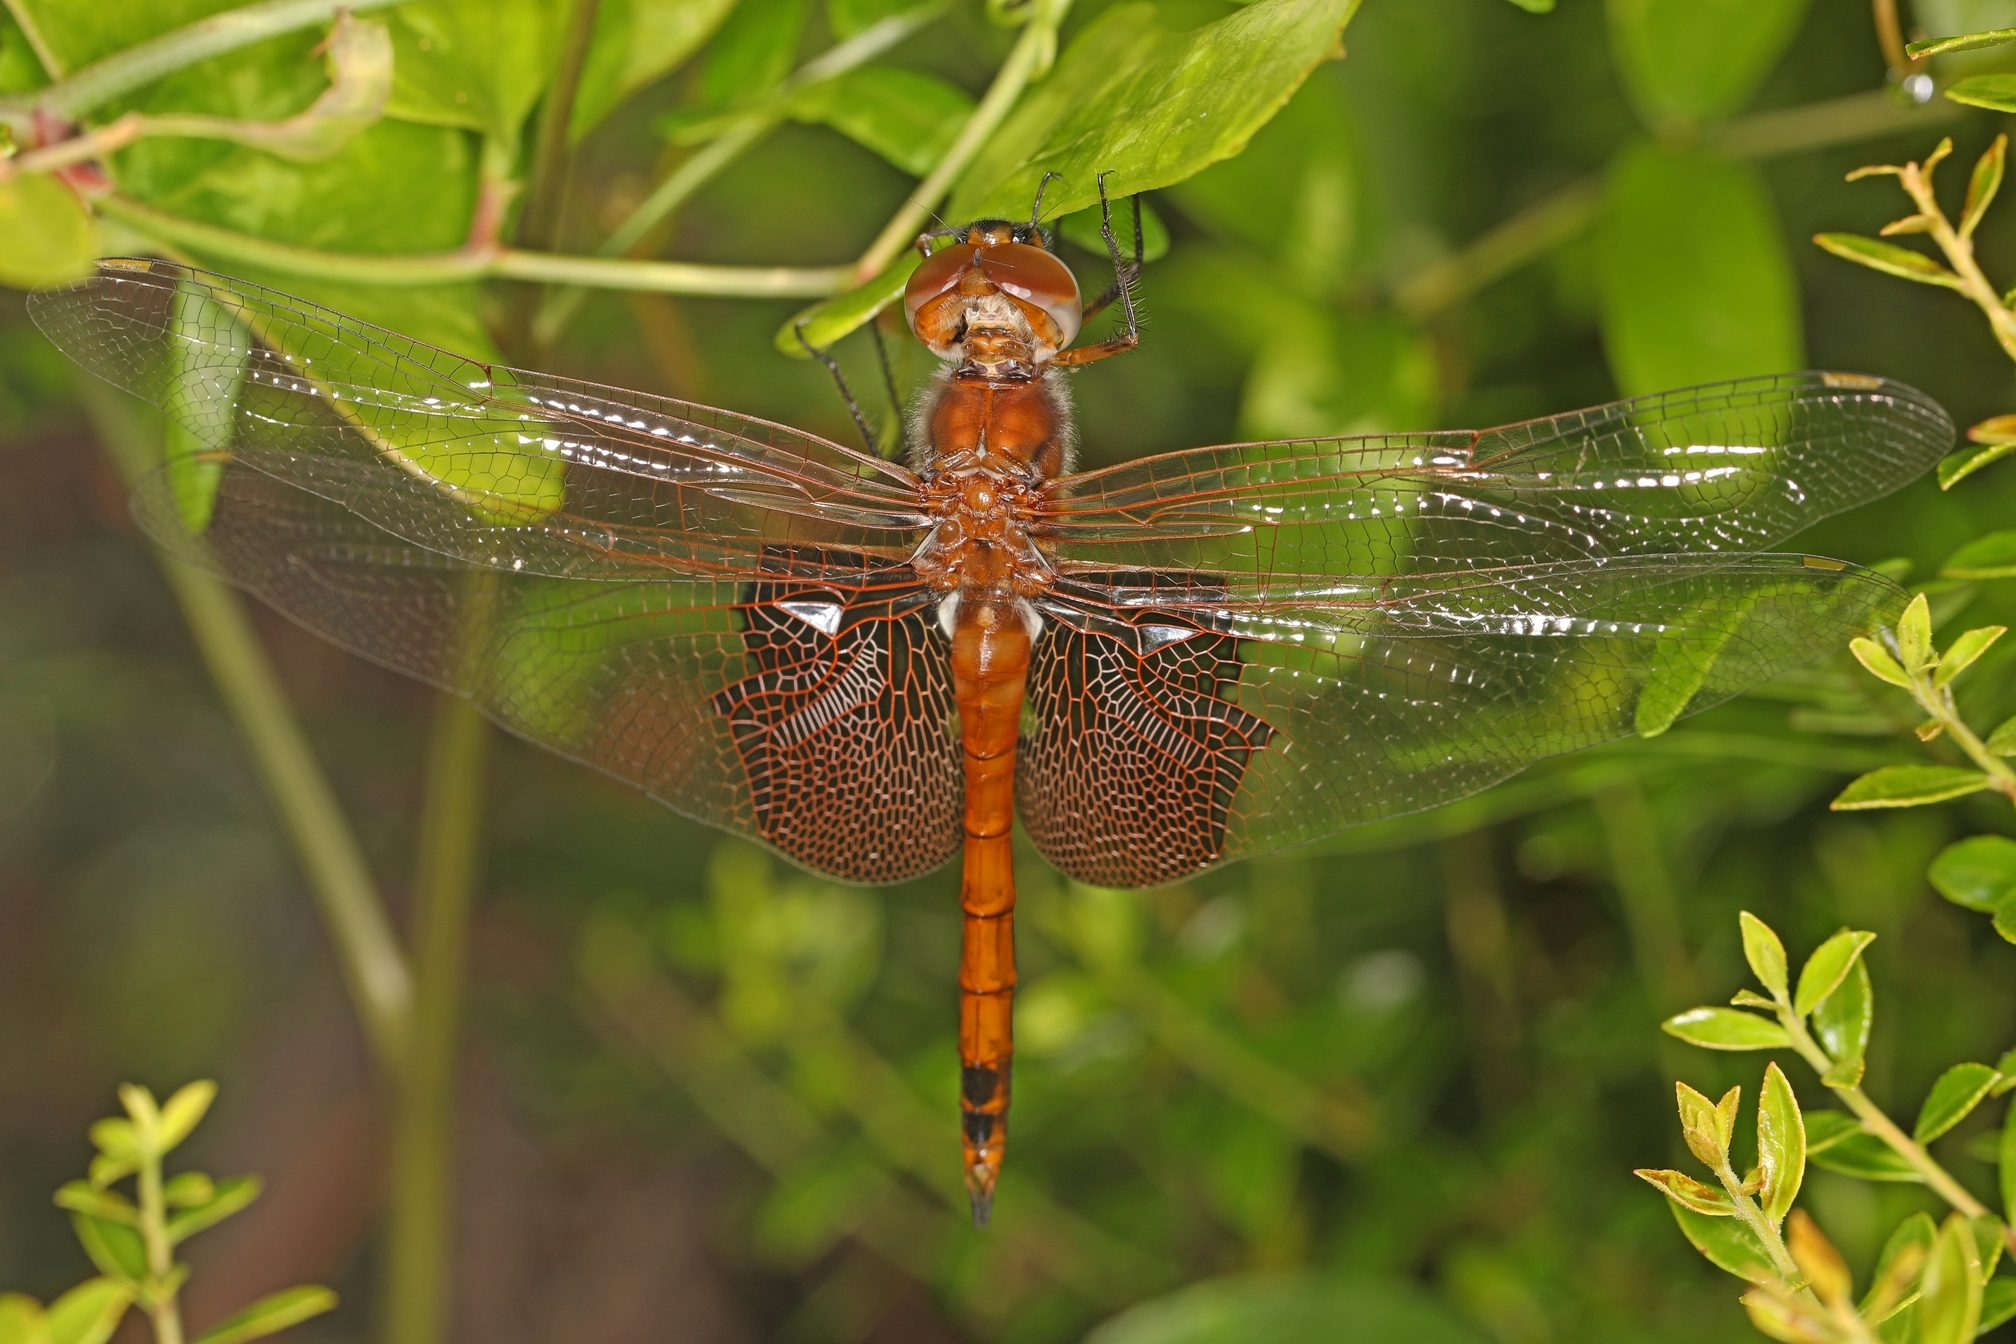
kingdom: Animalia
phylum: Arthropoda
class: Insecta
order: Odonata
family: Libellulidae
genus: Tramea
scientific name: Tramea carolina
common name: Carolina saddlebags
